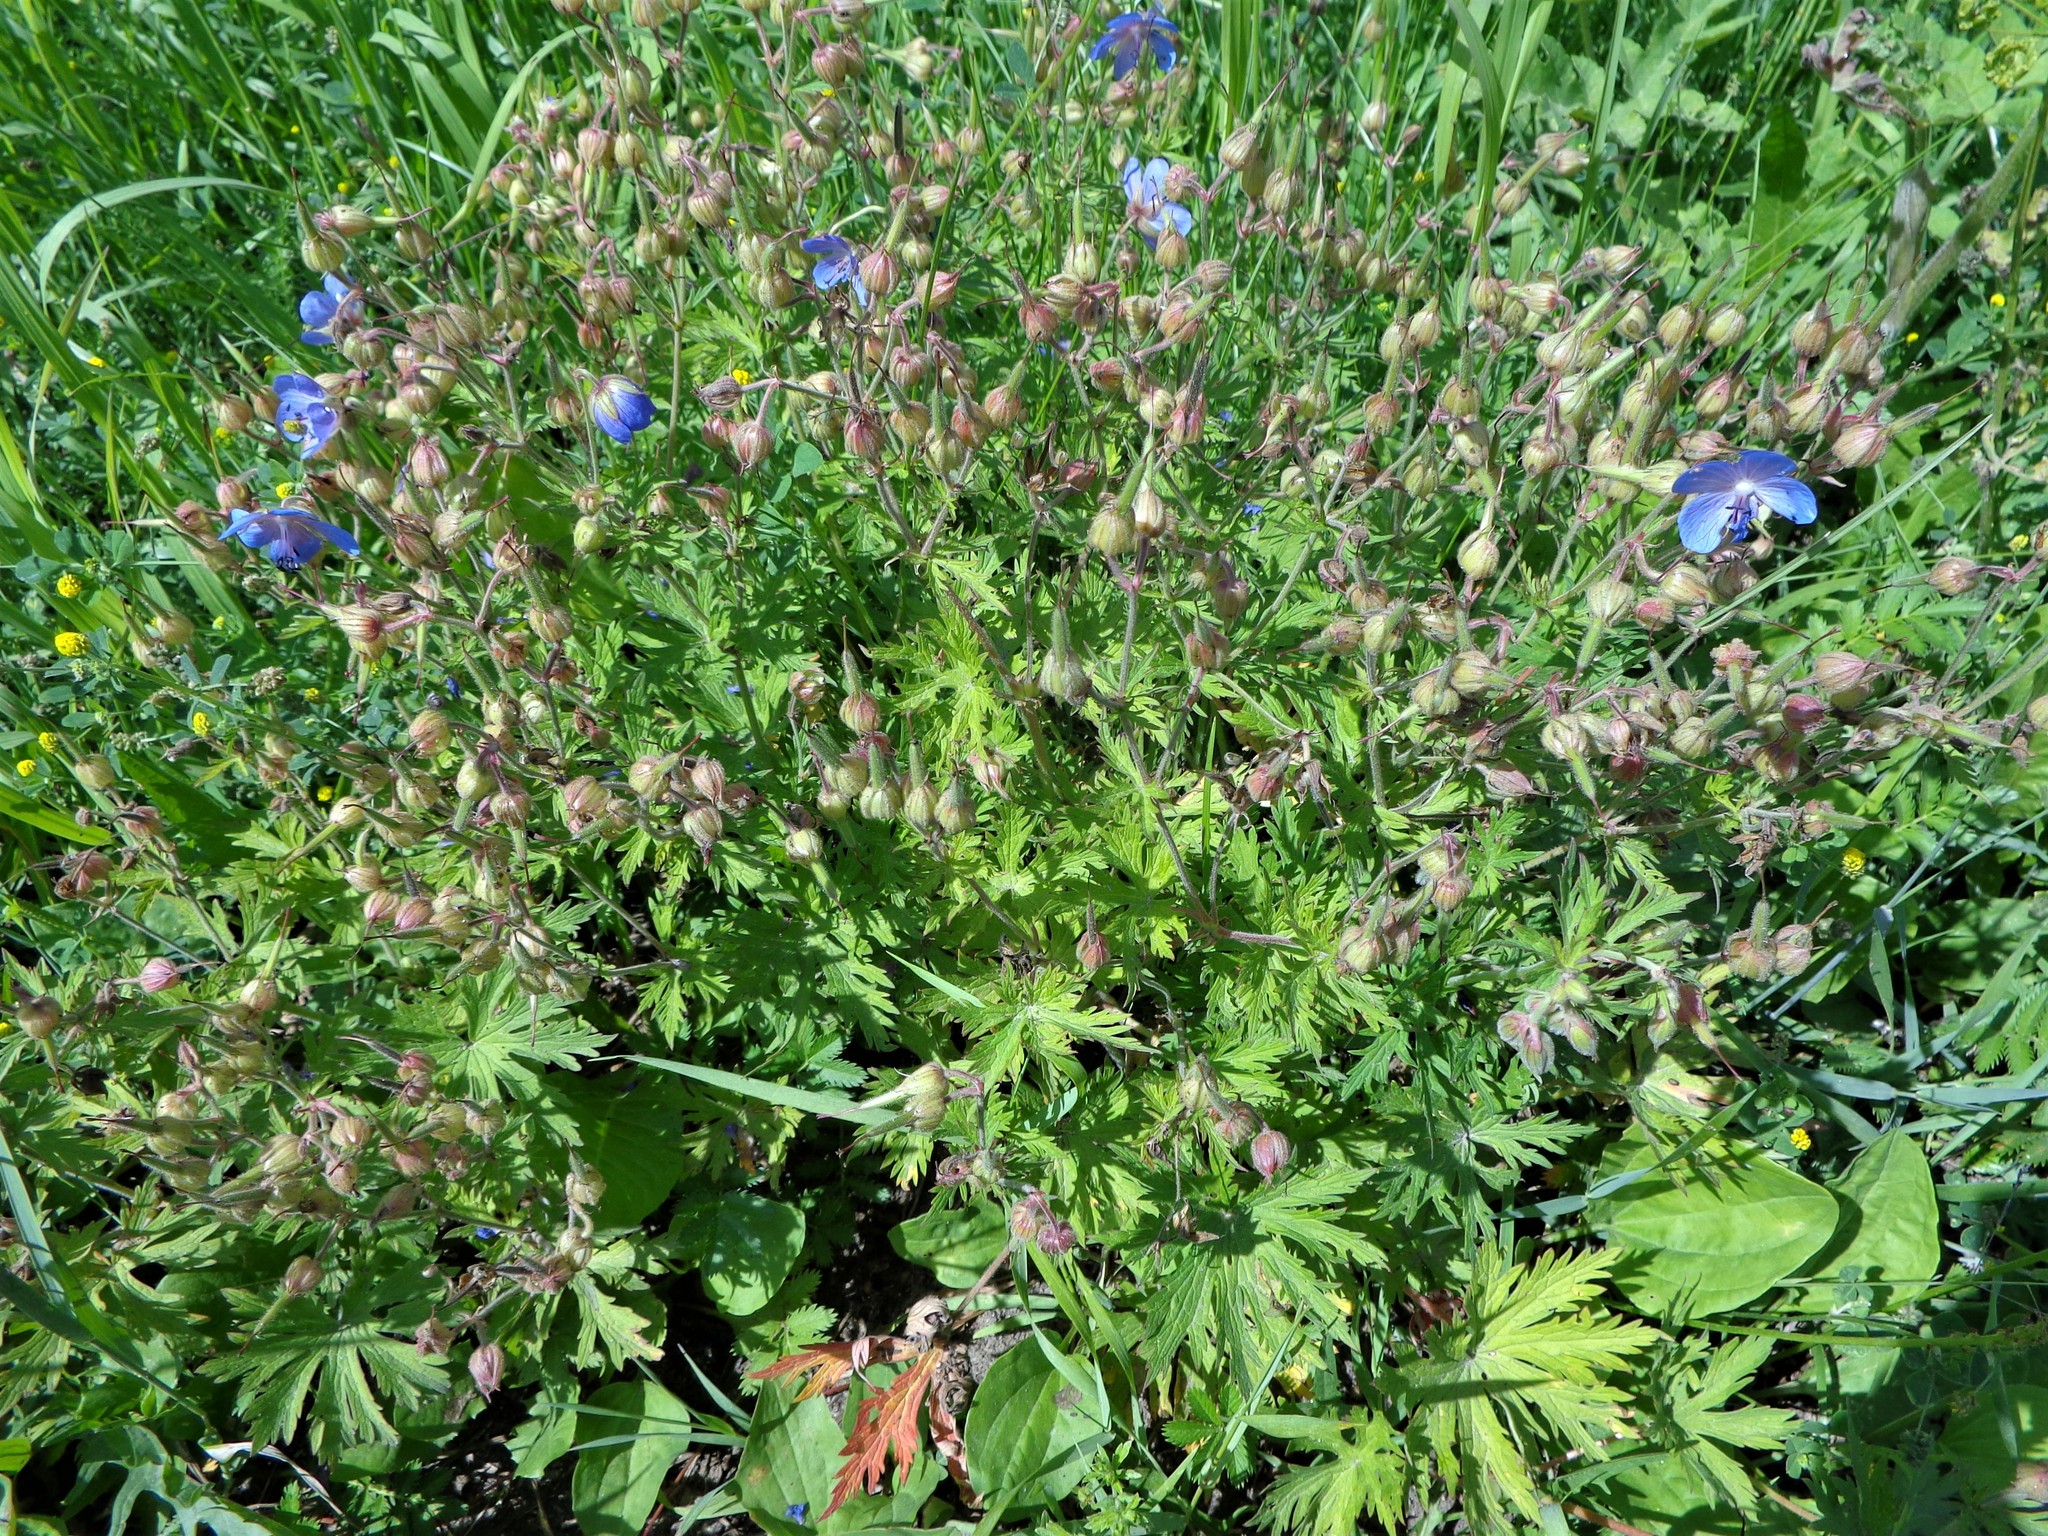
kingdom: Plantae
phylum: Tracheophyta
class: Magnoliopsida
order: Geraniales
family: Geraniaceae
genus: Geranium
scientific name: Geranium pratense
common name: Meadow crane's-bill
